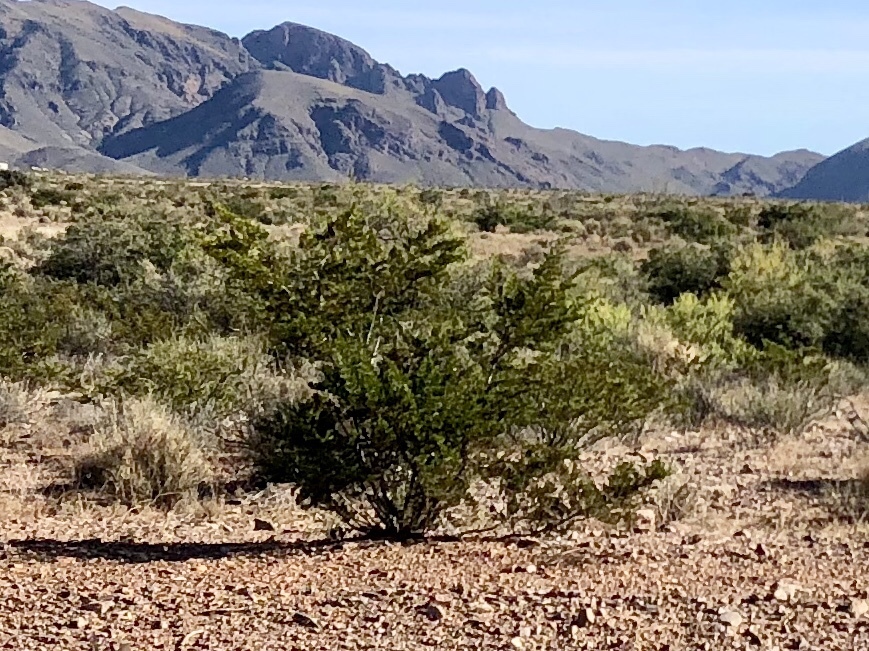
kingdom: Plantae
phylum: Tracheophyta
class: Magnoliopsida
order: Zygophyllales
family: Zygophyllaceae
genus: Larrea
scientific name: Larrea tridentata
